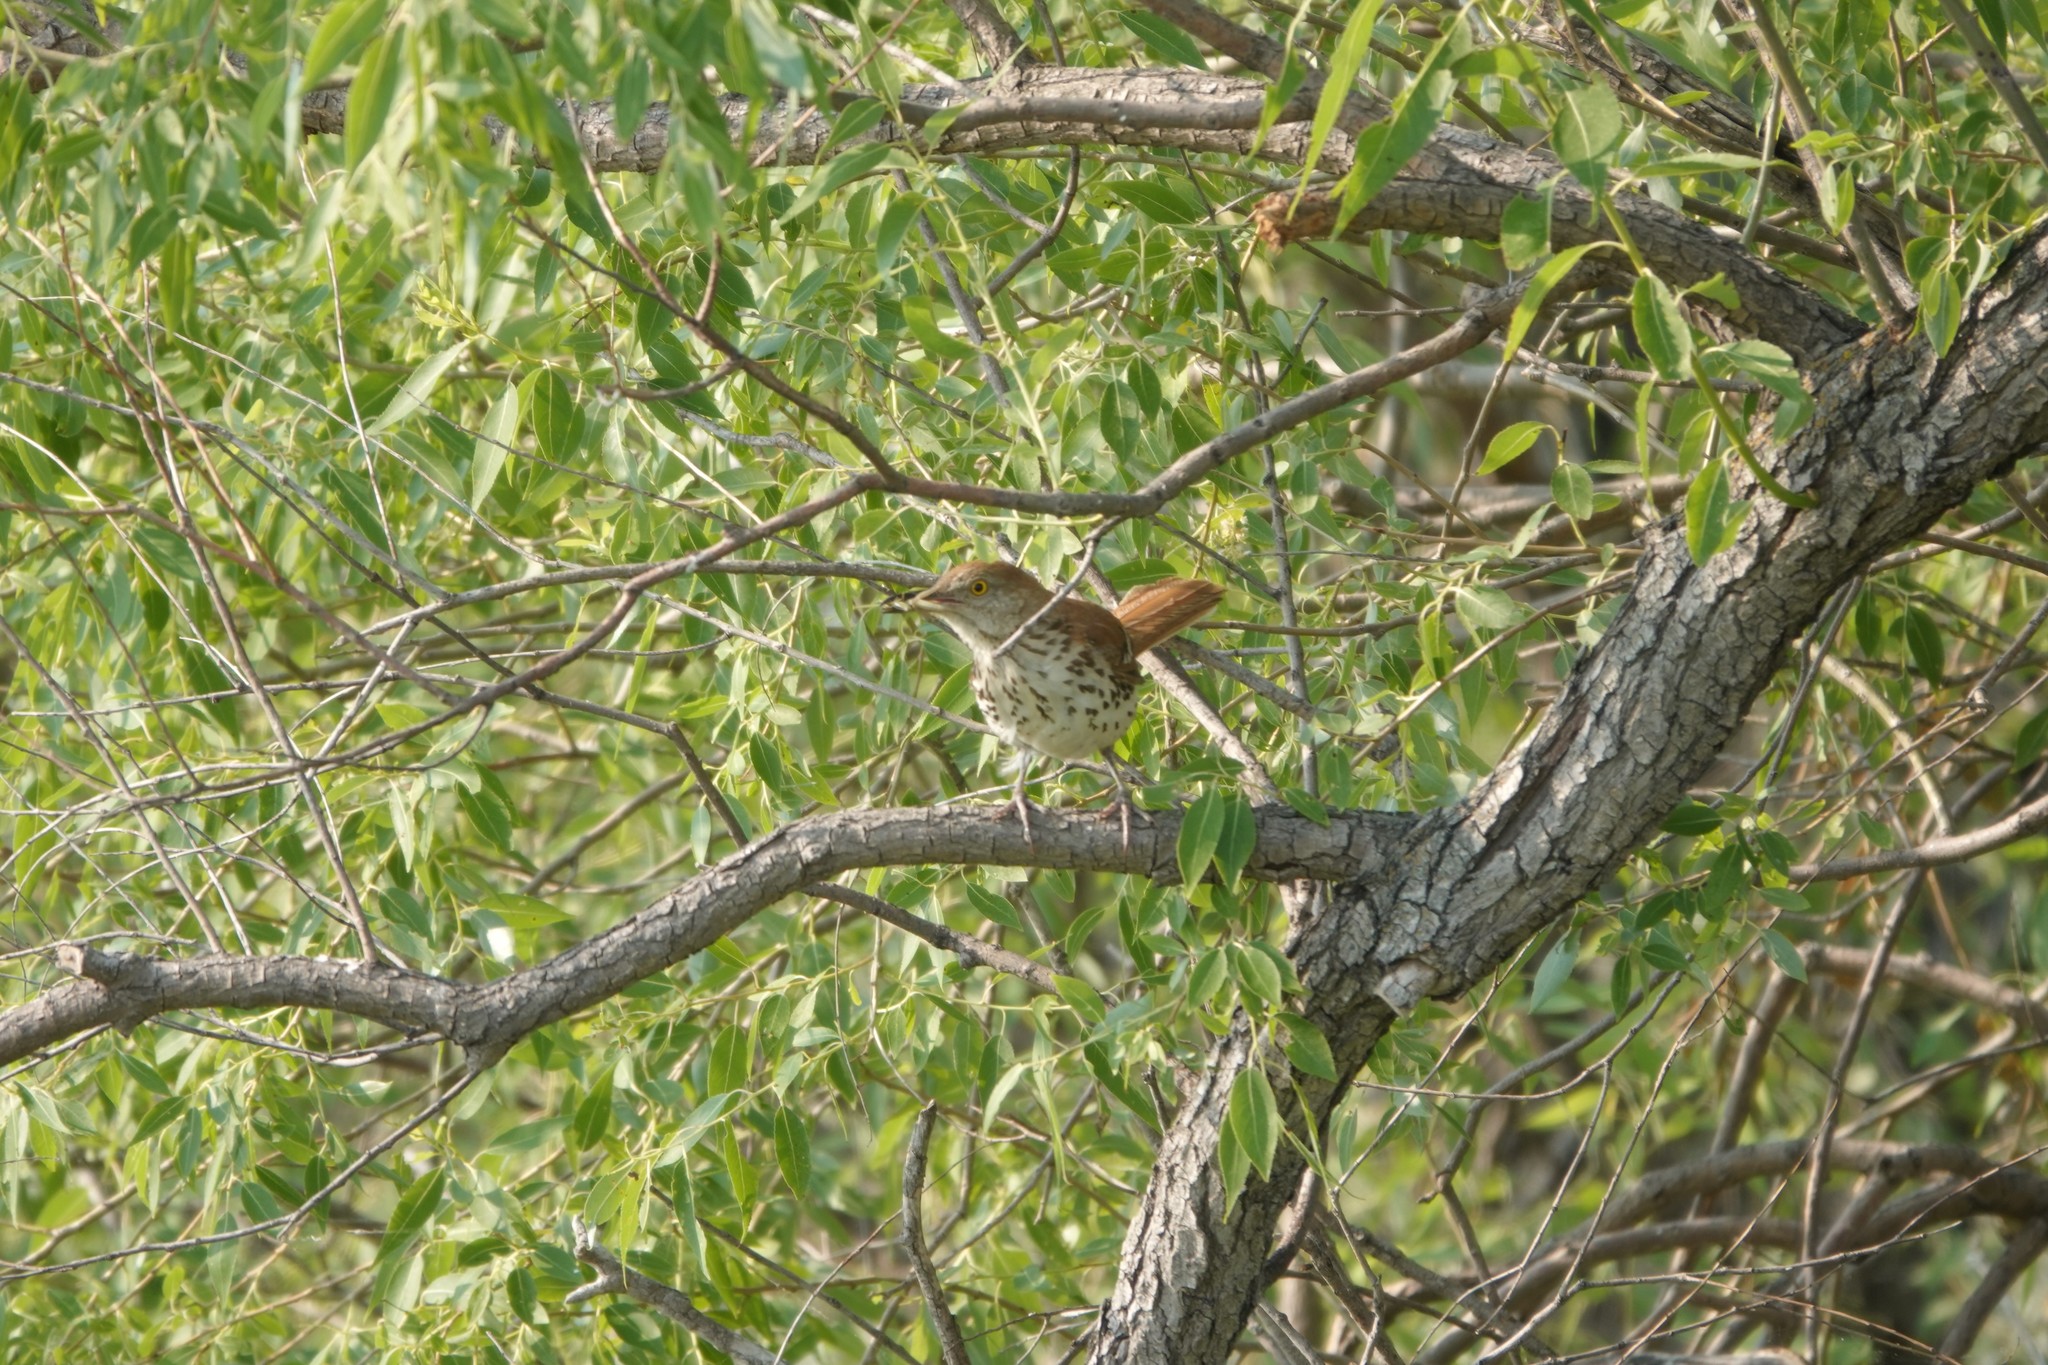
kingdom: Animalia
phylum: Chordata
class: Aves
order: Passeriformes
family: Mimidae
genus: Toxostoma
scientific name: Toxostoma rufum
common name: Brown thrasher
